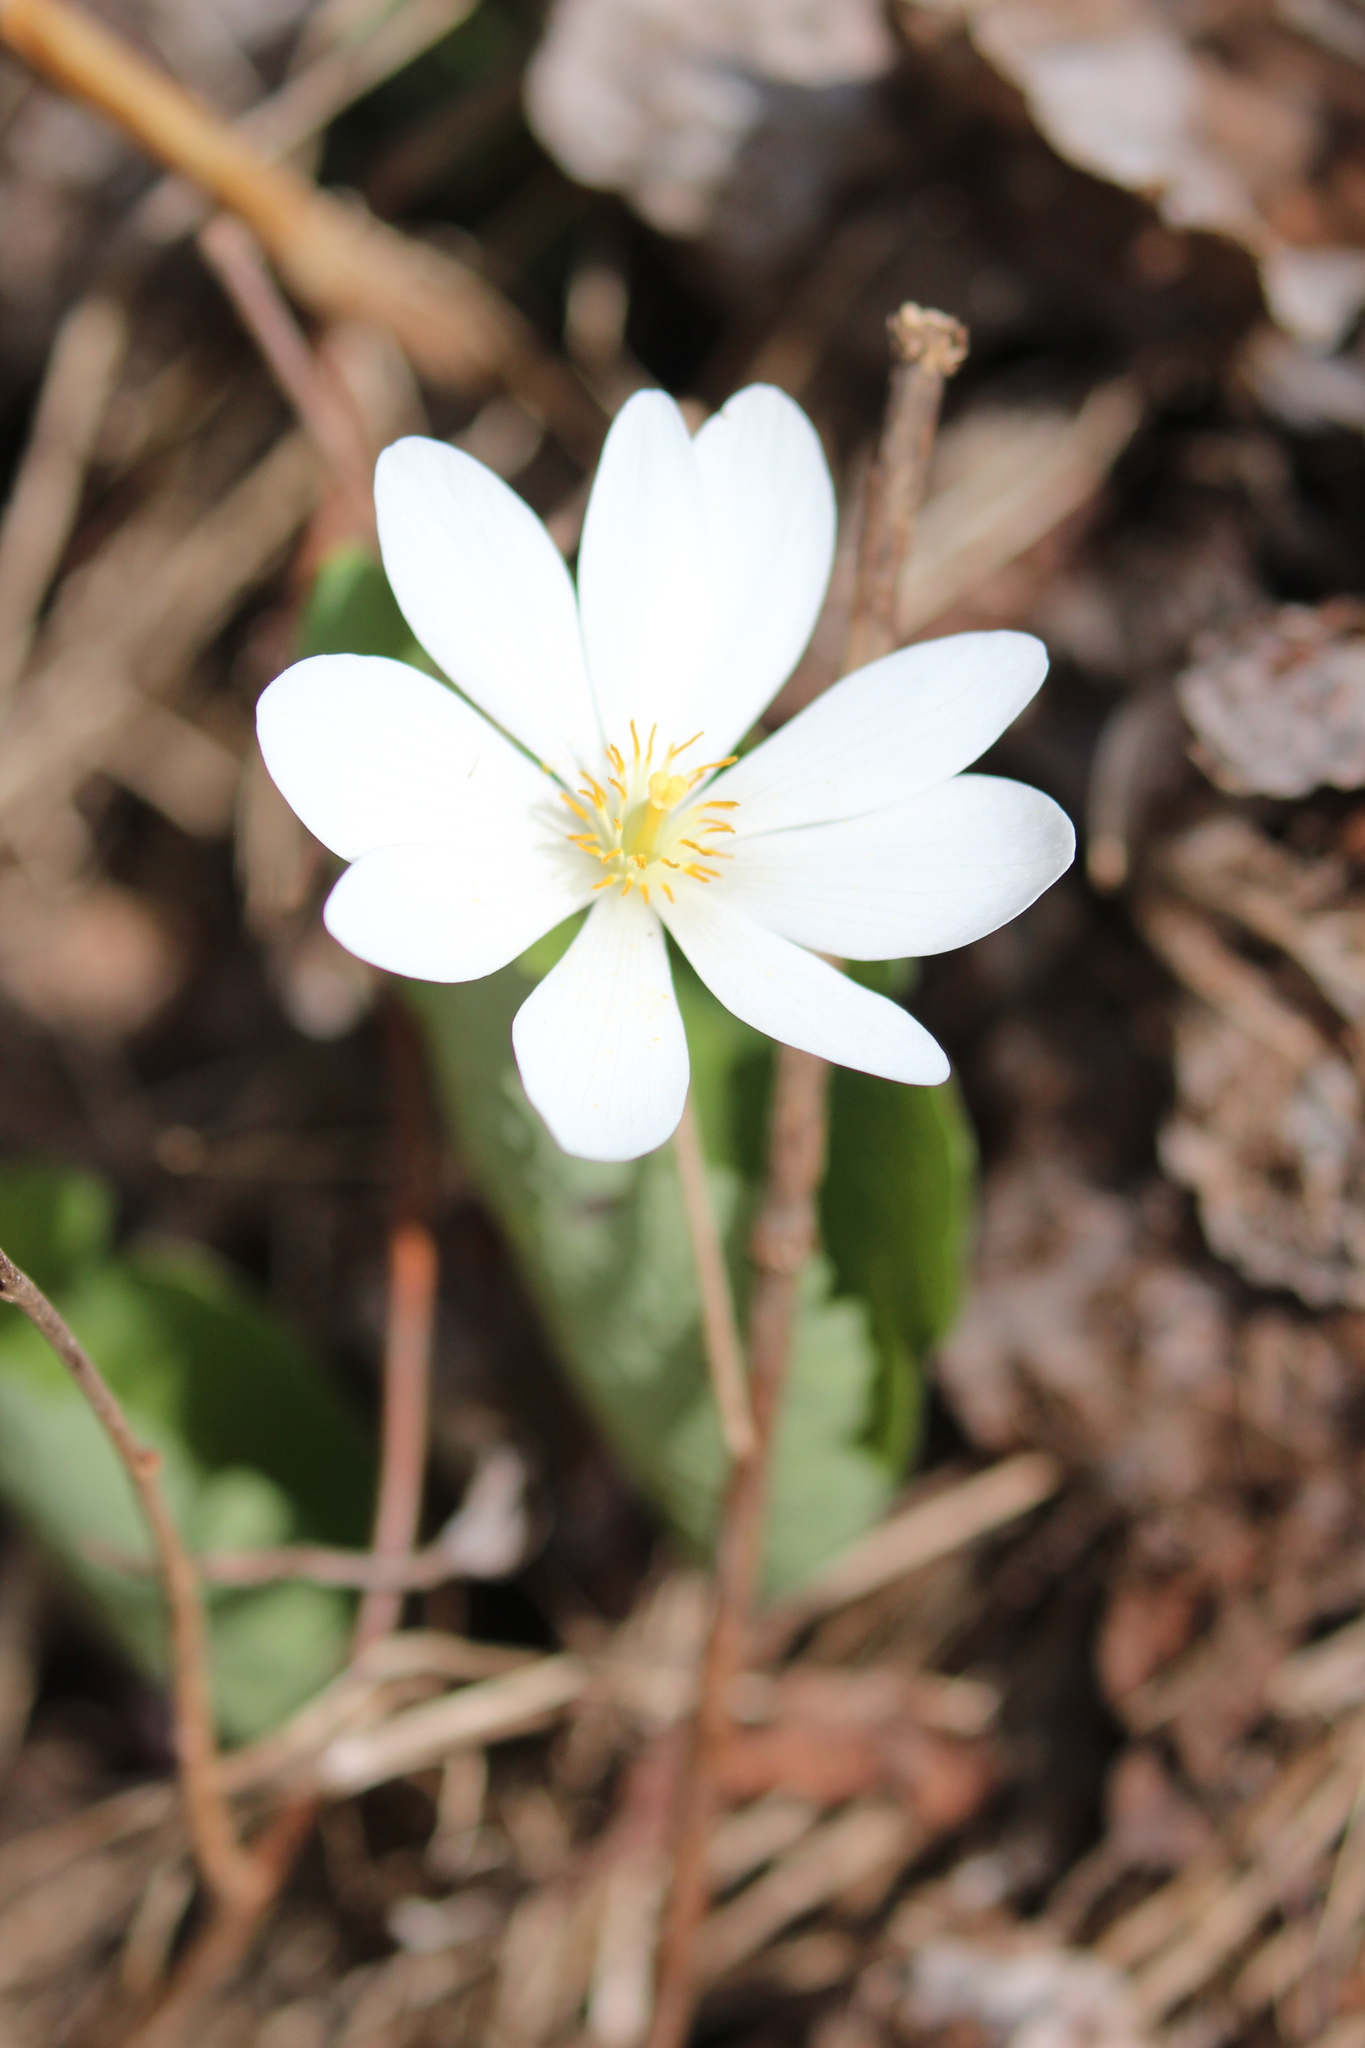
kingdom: Plantae
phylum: Tracheophyta
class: Magnoliopsida
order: Ranunculales
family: Papaveraceae
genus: Sanguinaria
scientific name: Sanguinaria canadensis
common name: Bloodroot
